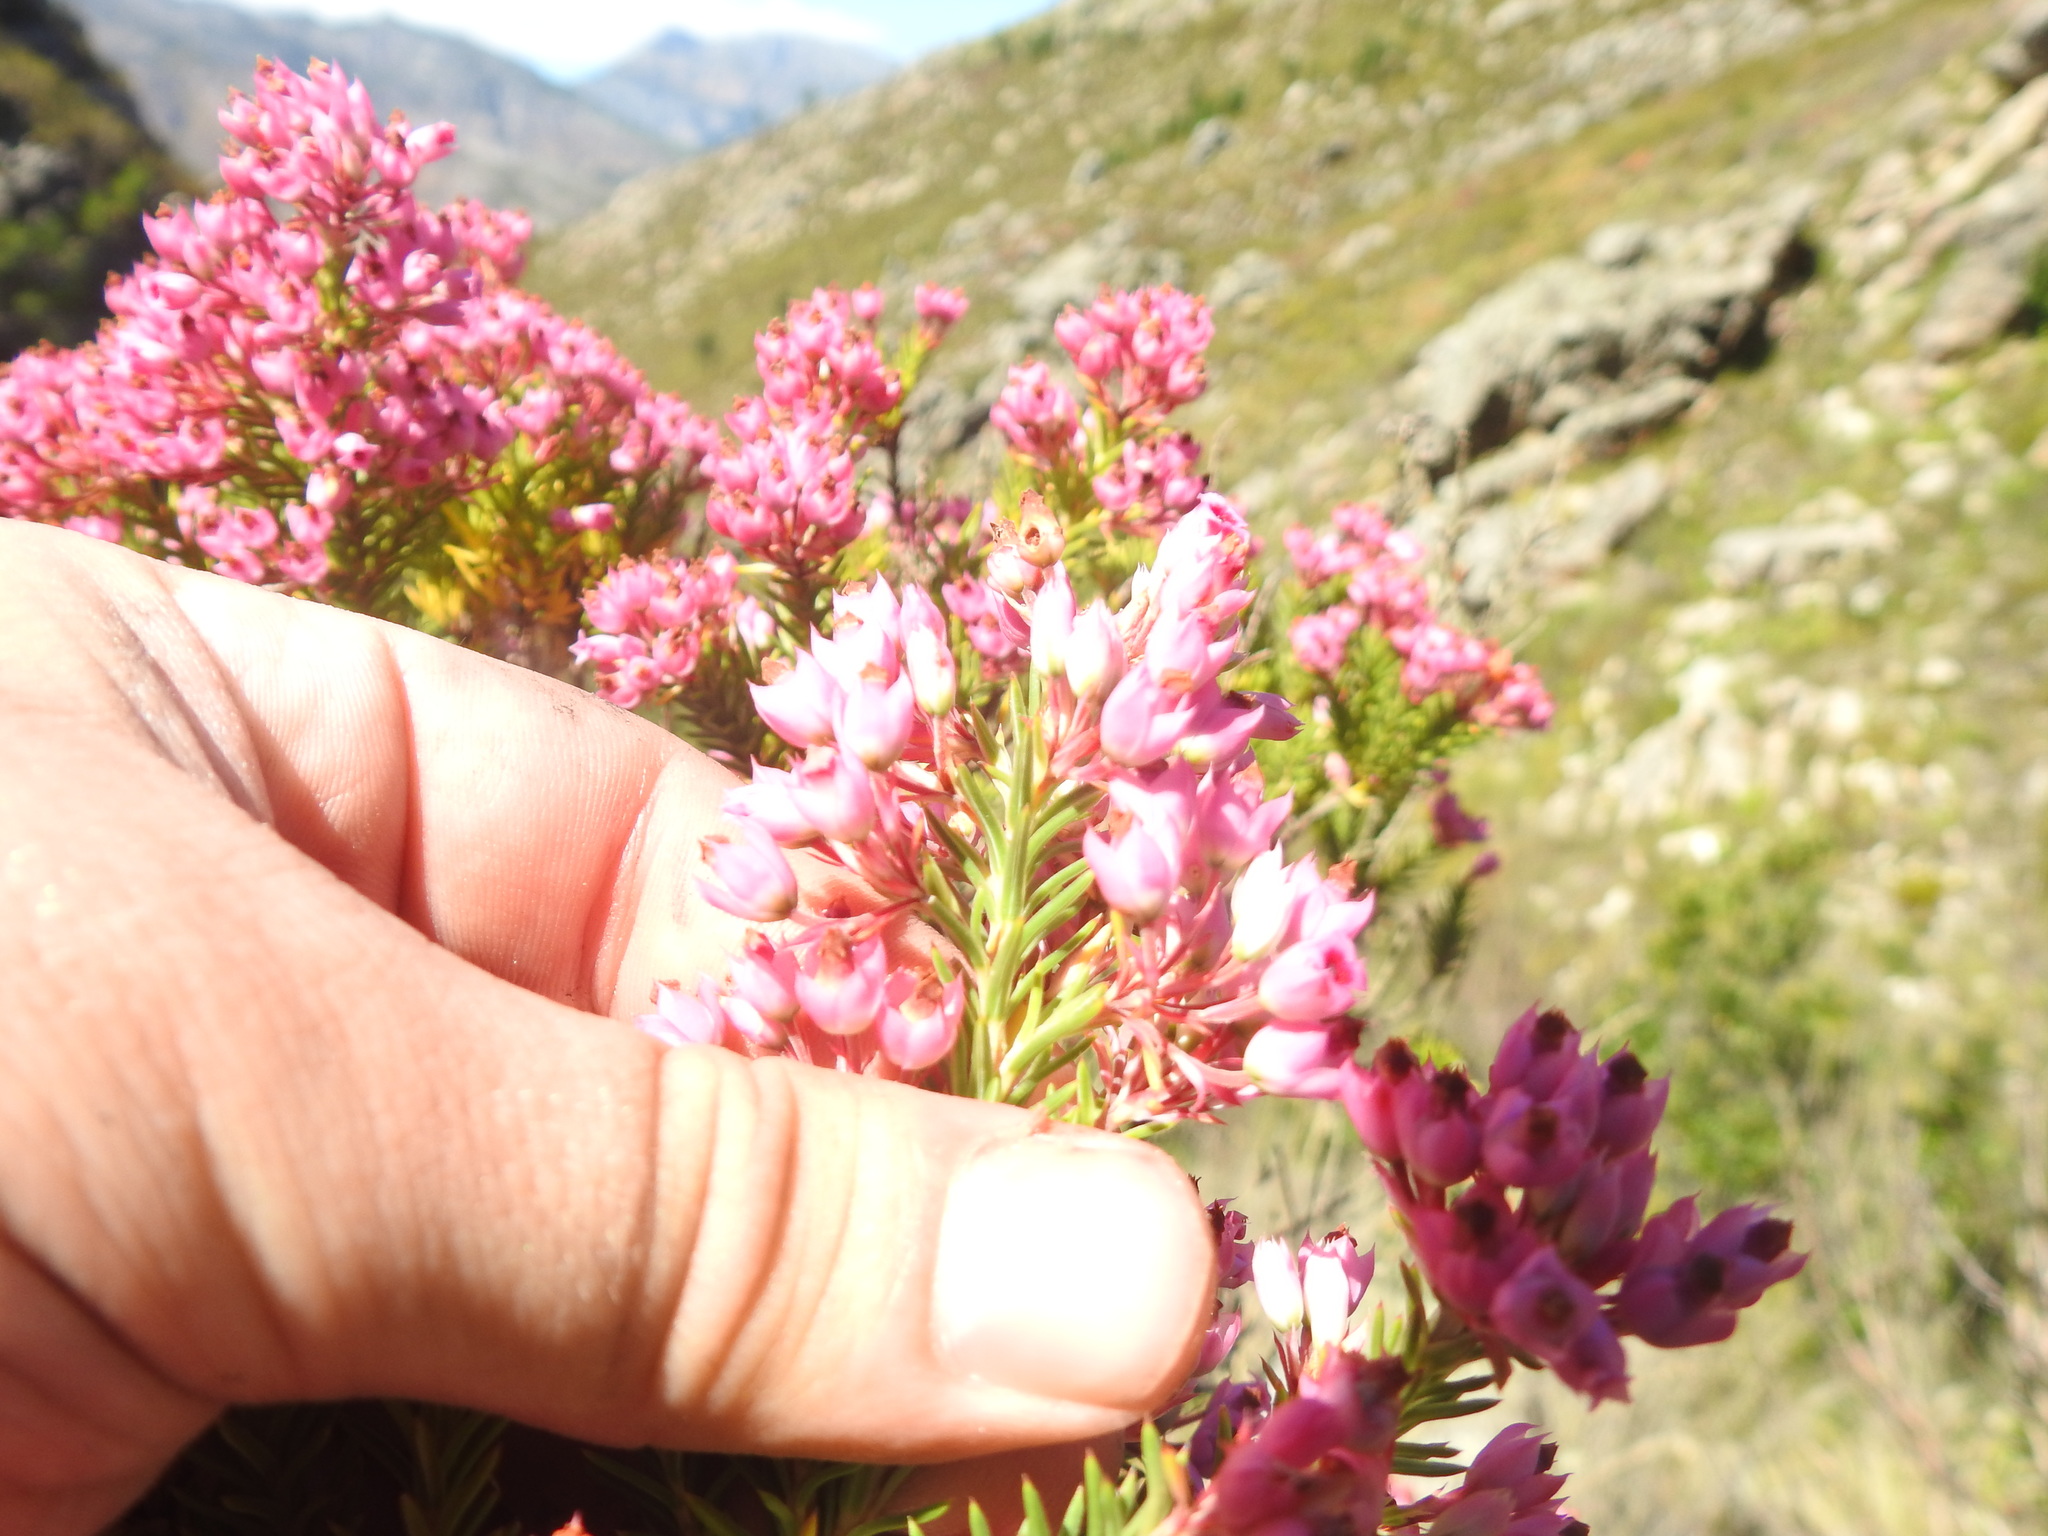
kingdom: Plantae
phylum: Tracheophyta
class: Magnoliopsida
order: Ericales
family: Ericaceae
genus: Erica
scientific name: Erica taxifolia
